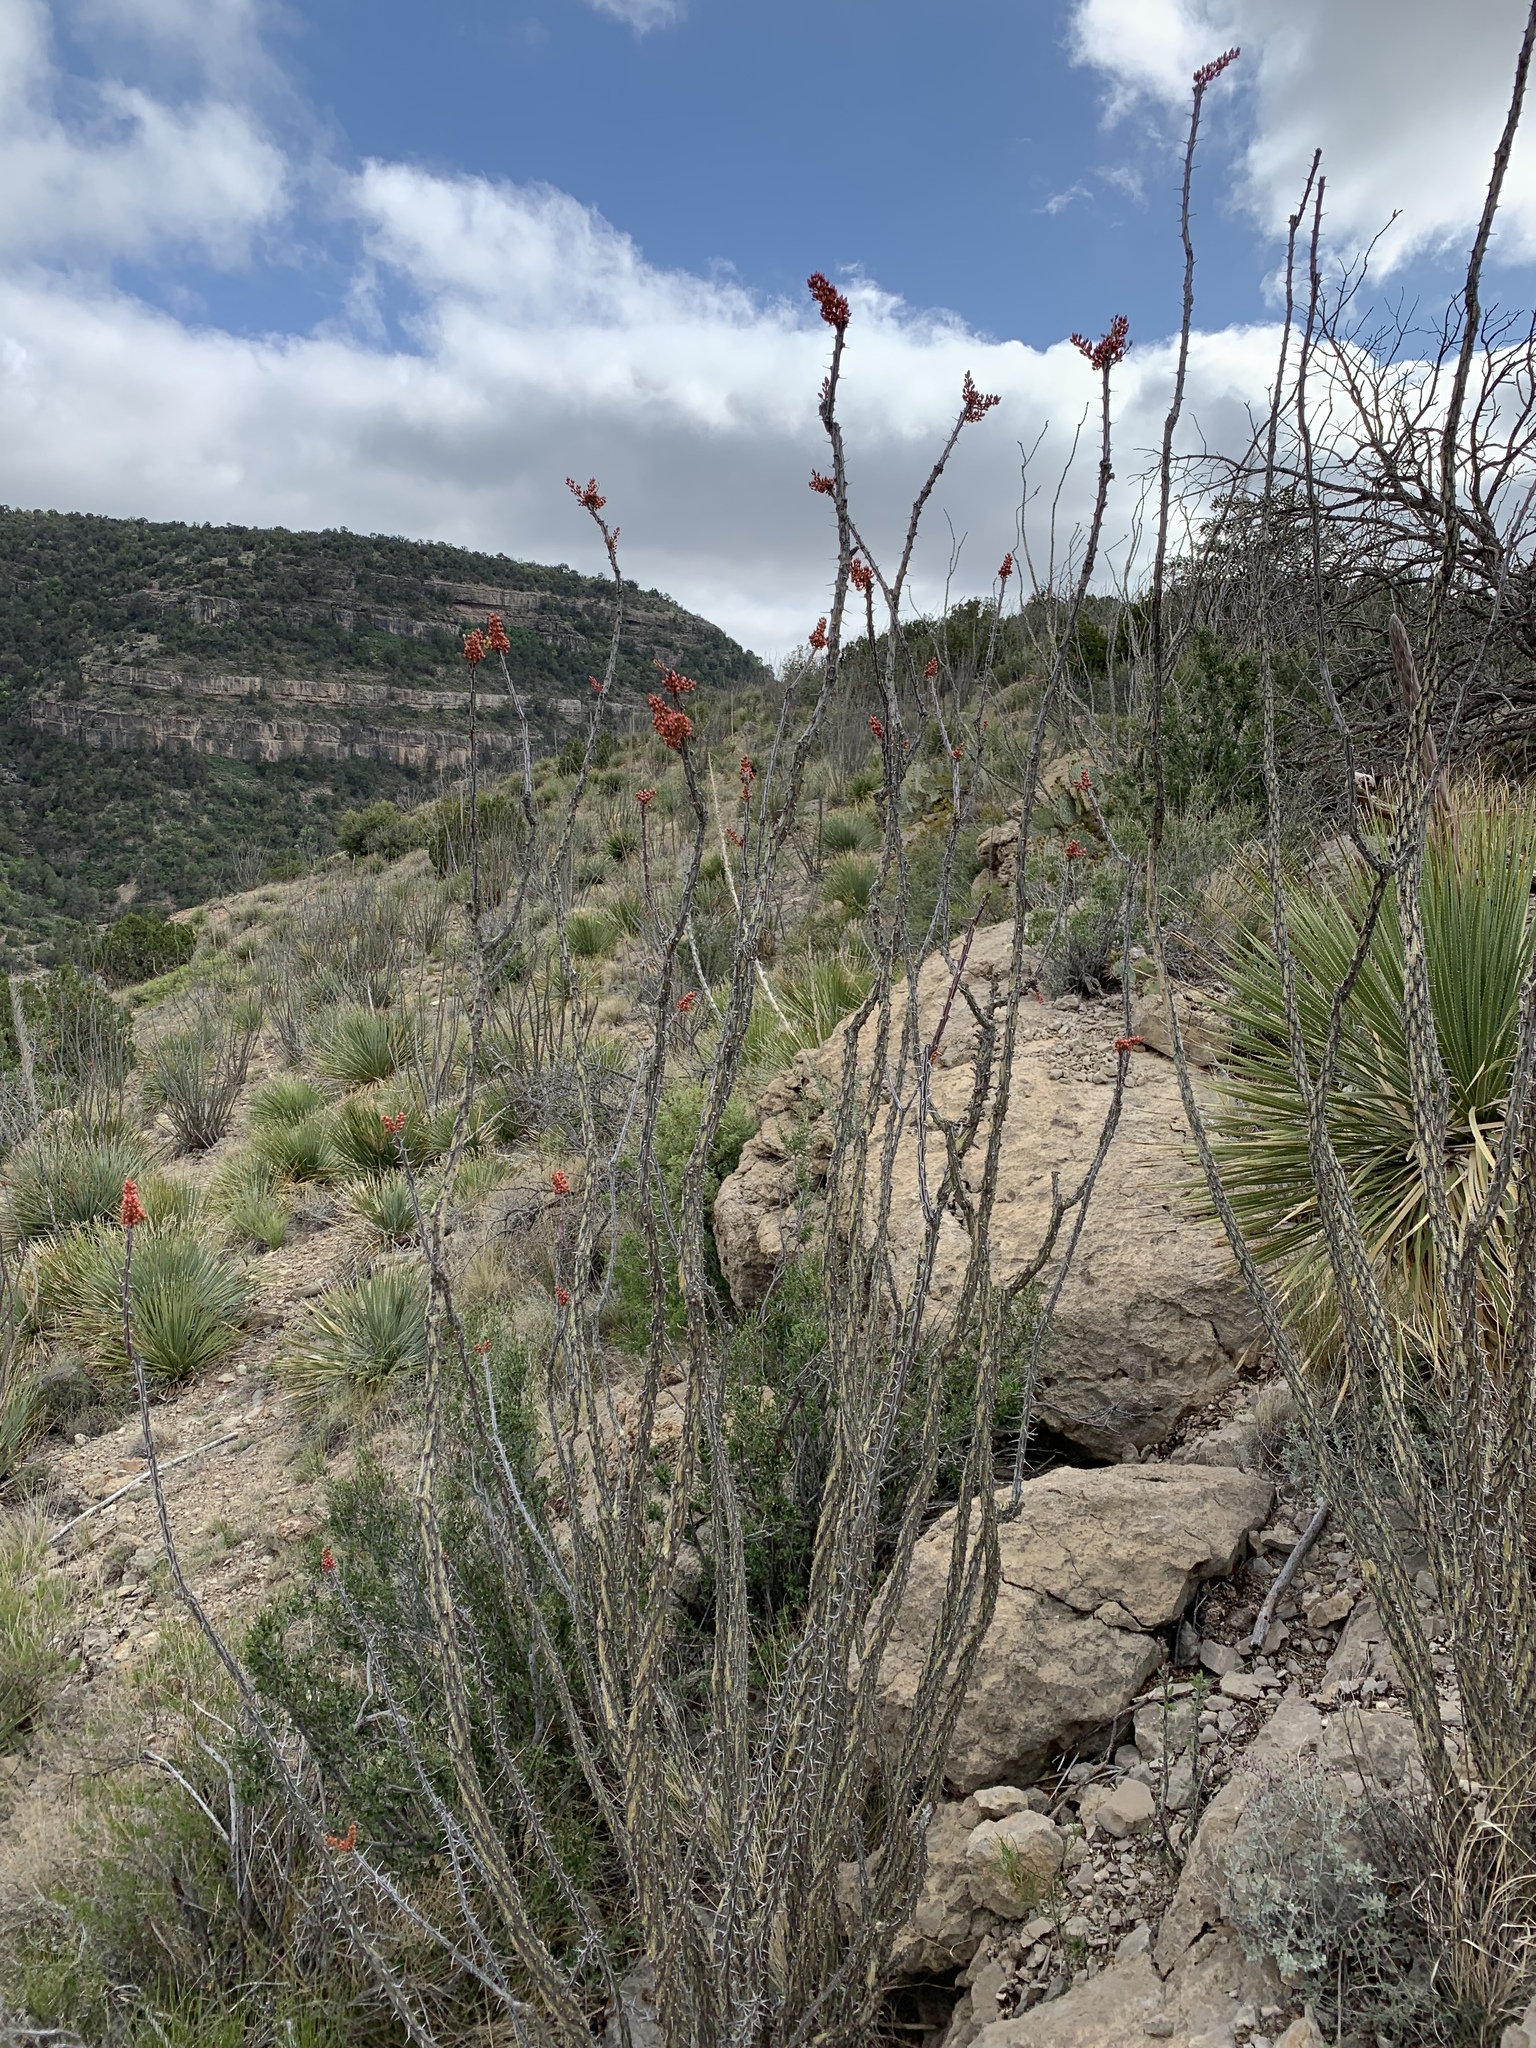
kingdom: Plantae
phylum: Tracheophyta
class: Magnoliopsida
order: Ericales
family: Fouquieriaceae
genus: Fouquieria
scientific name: Fouquieria splendens
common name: Vine-cactus
